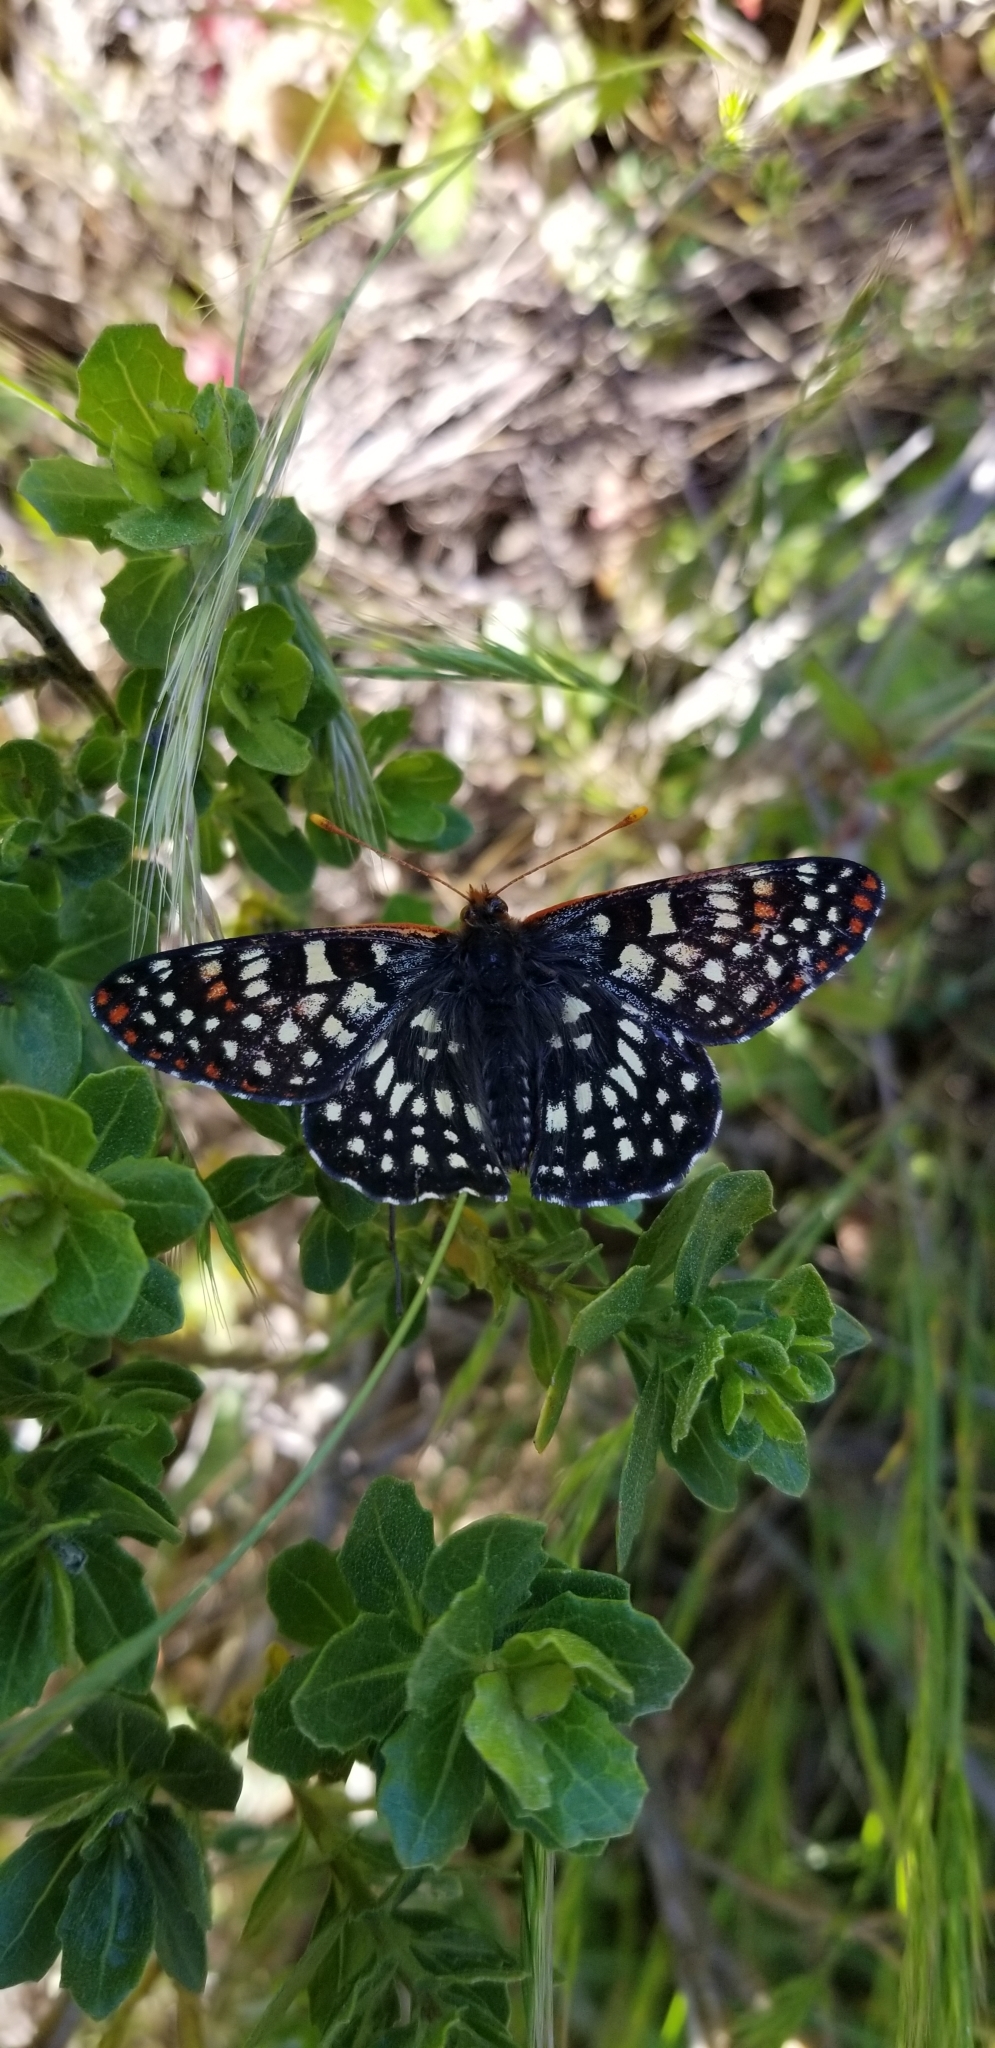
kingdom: Animalia
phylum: Arthropoda
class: Insecta
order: Lepidoptera
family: Nymphalidae
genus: Occidryas
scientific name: Occidryas chalcedona
